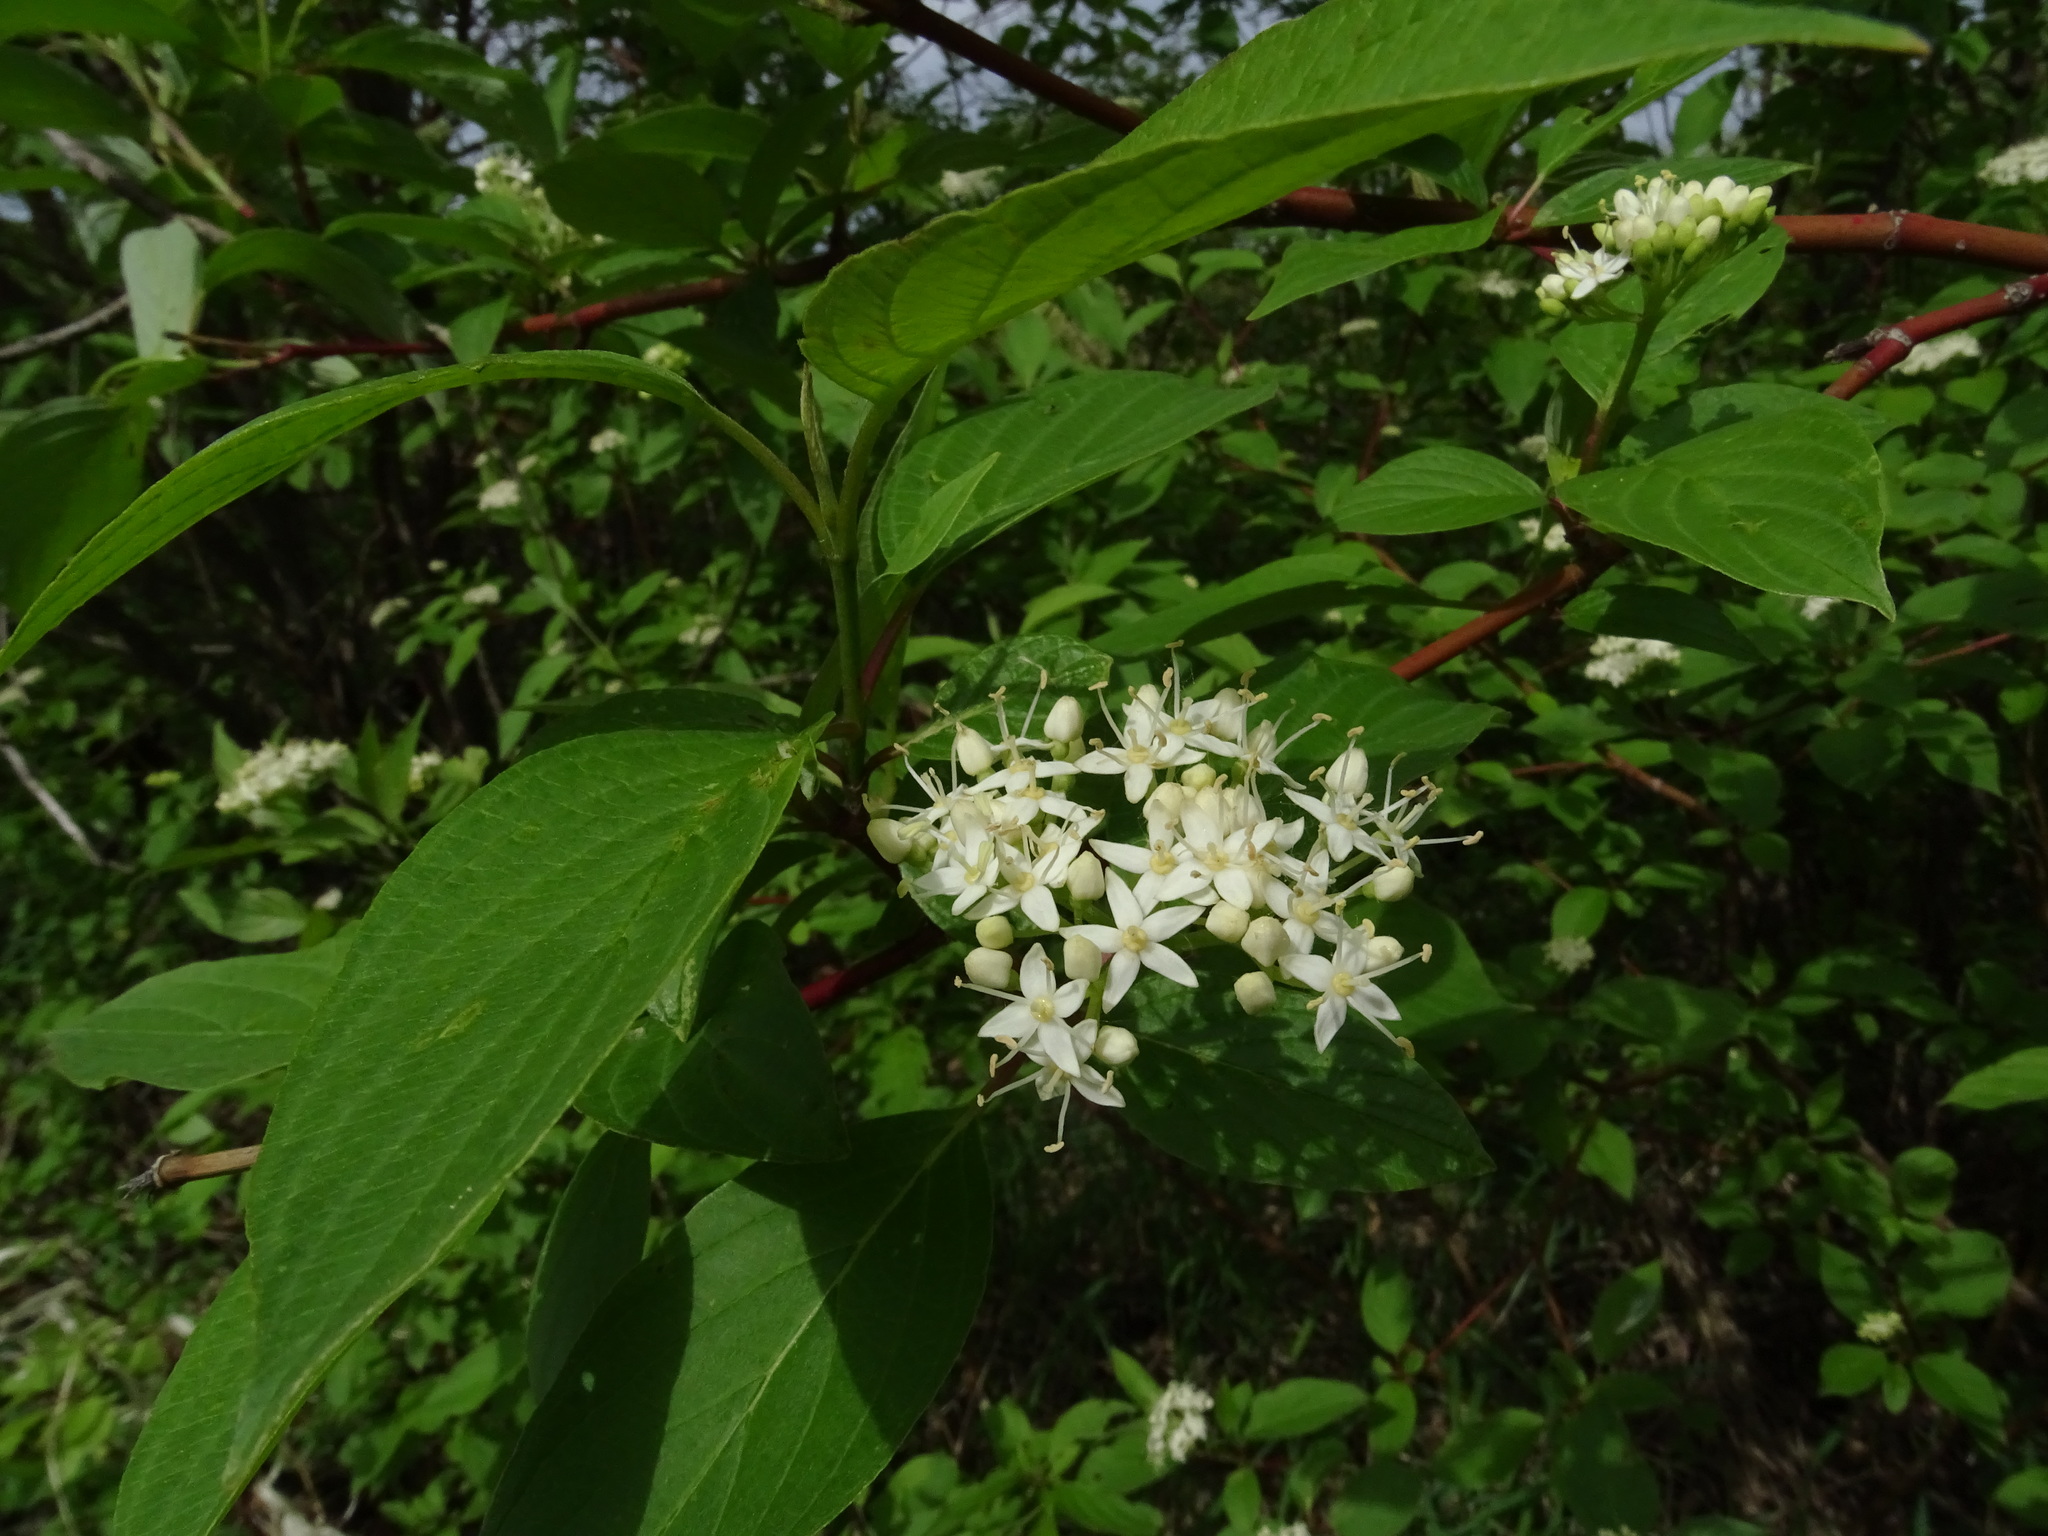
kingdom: Plantae
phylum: Tracheophyta
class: Magnoliopsida
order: Cornales
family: Cornaceae
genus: Cornus
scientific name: Cornus sericea
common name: Red-osier dogwood
